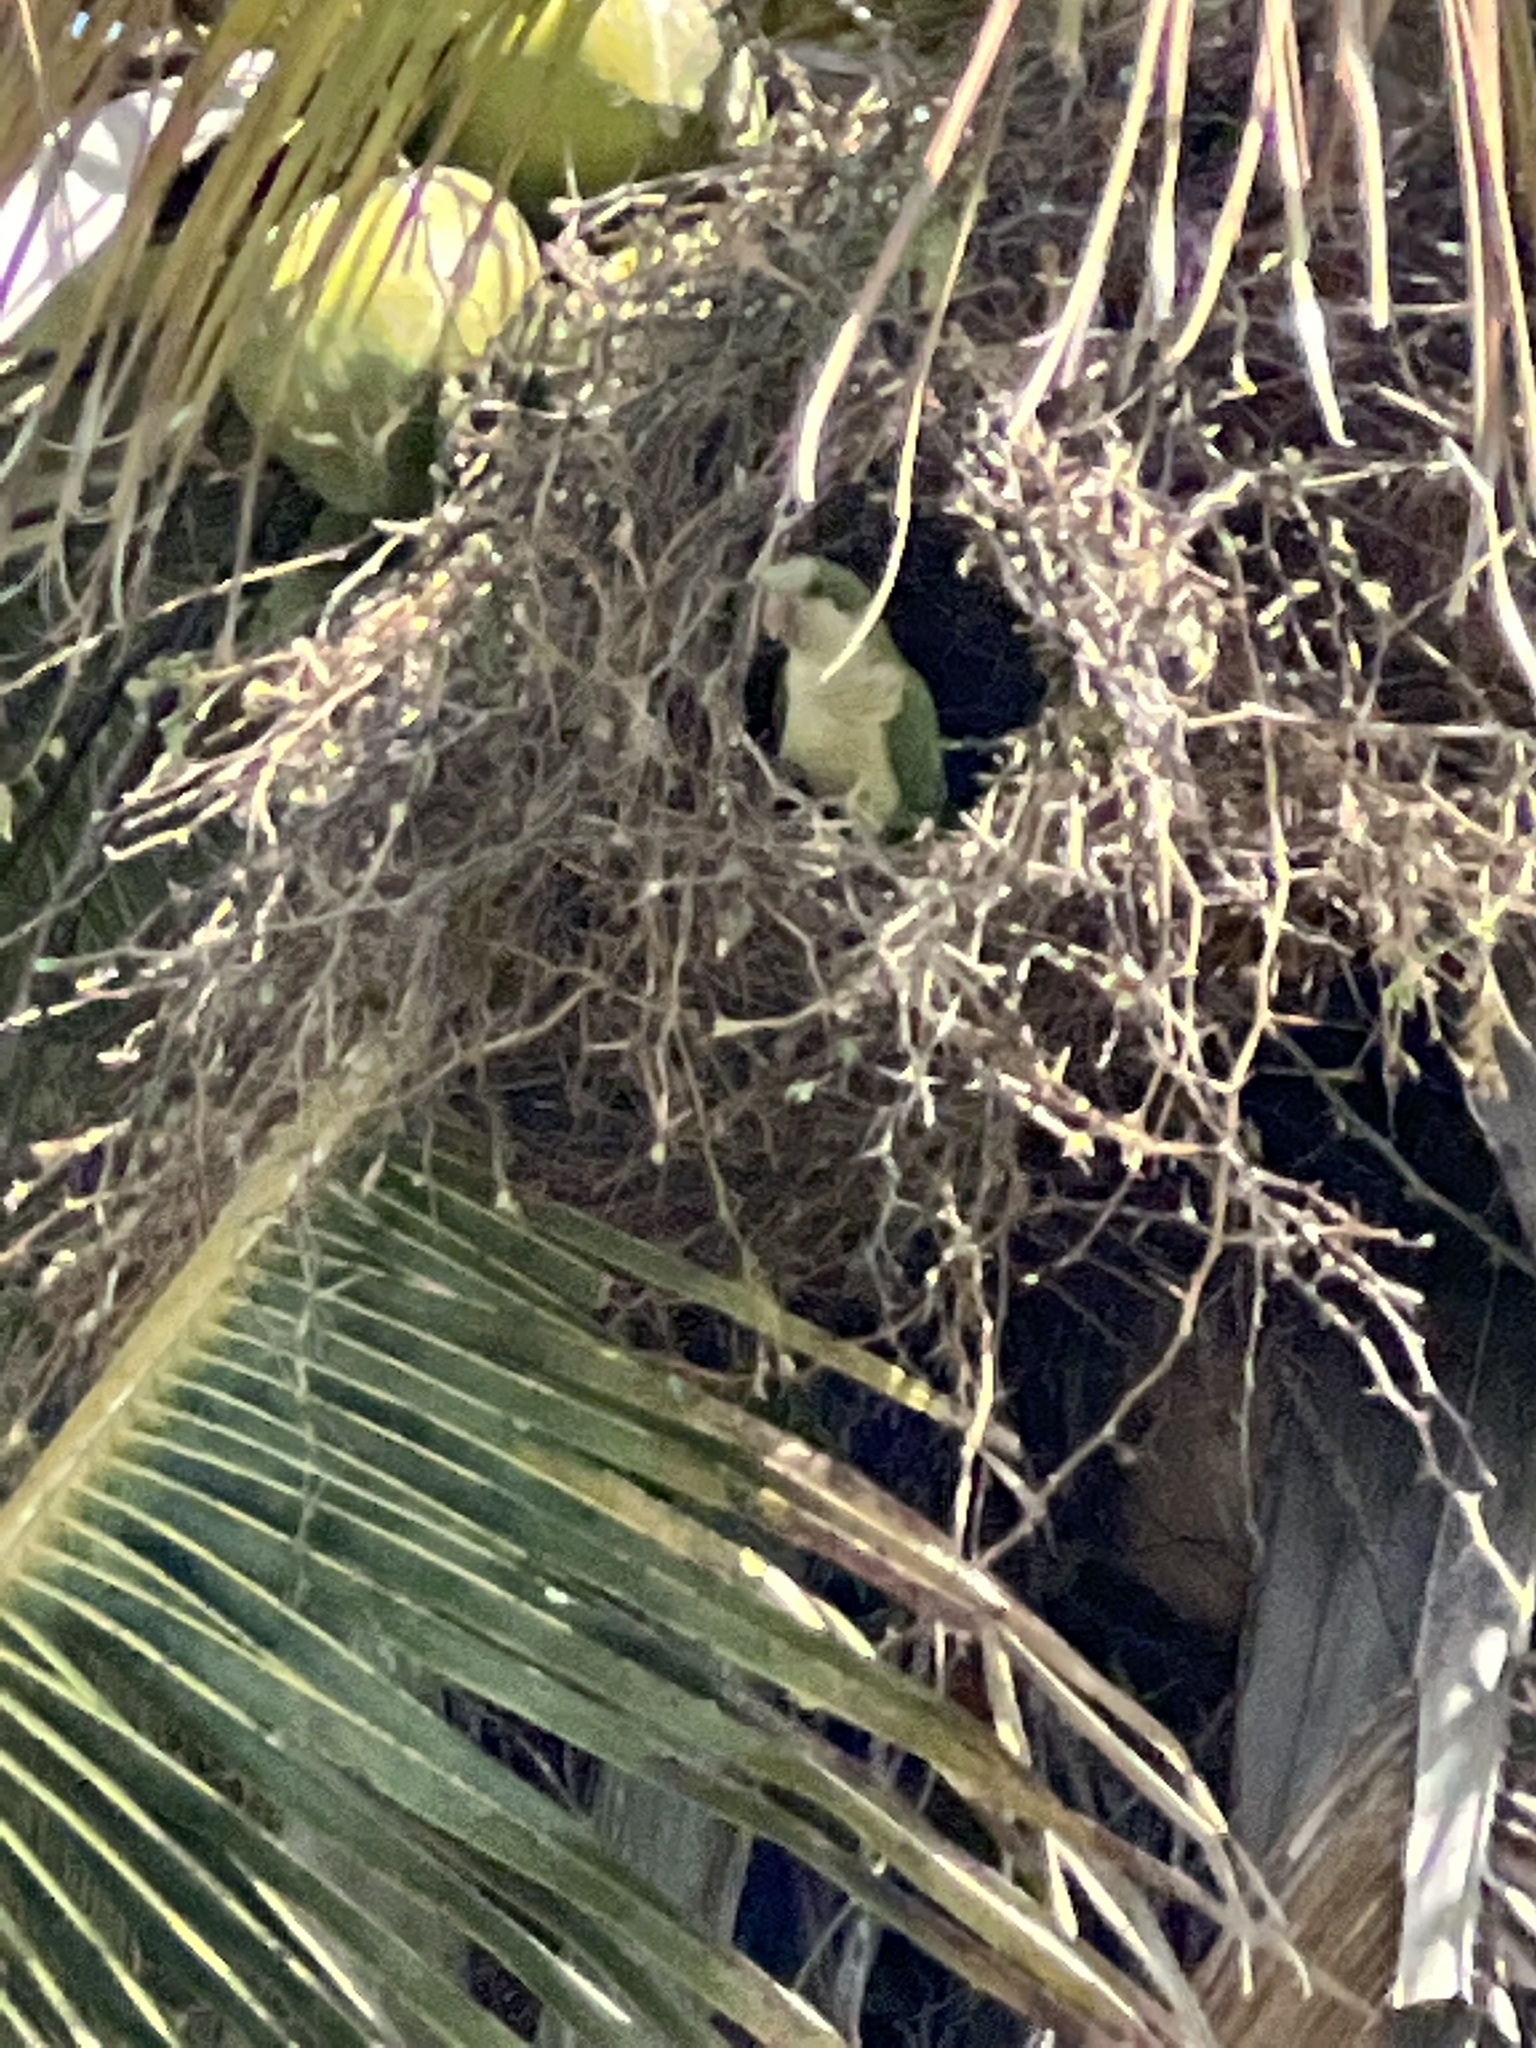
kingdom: Animalia
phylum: Chordata
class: Aves
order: Psittaciformes
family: Psittacidae
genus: Myiopsitta
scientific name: Myiopsitta monachus
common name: Monk parakeet
